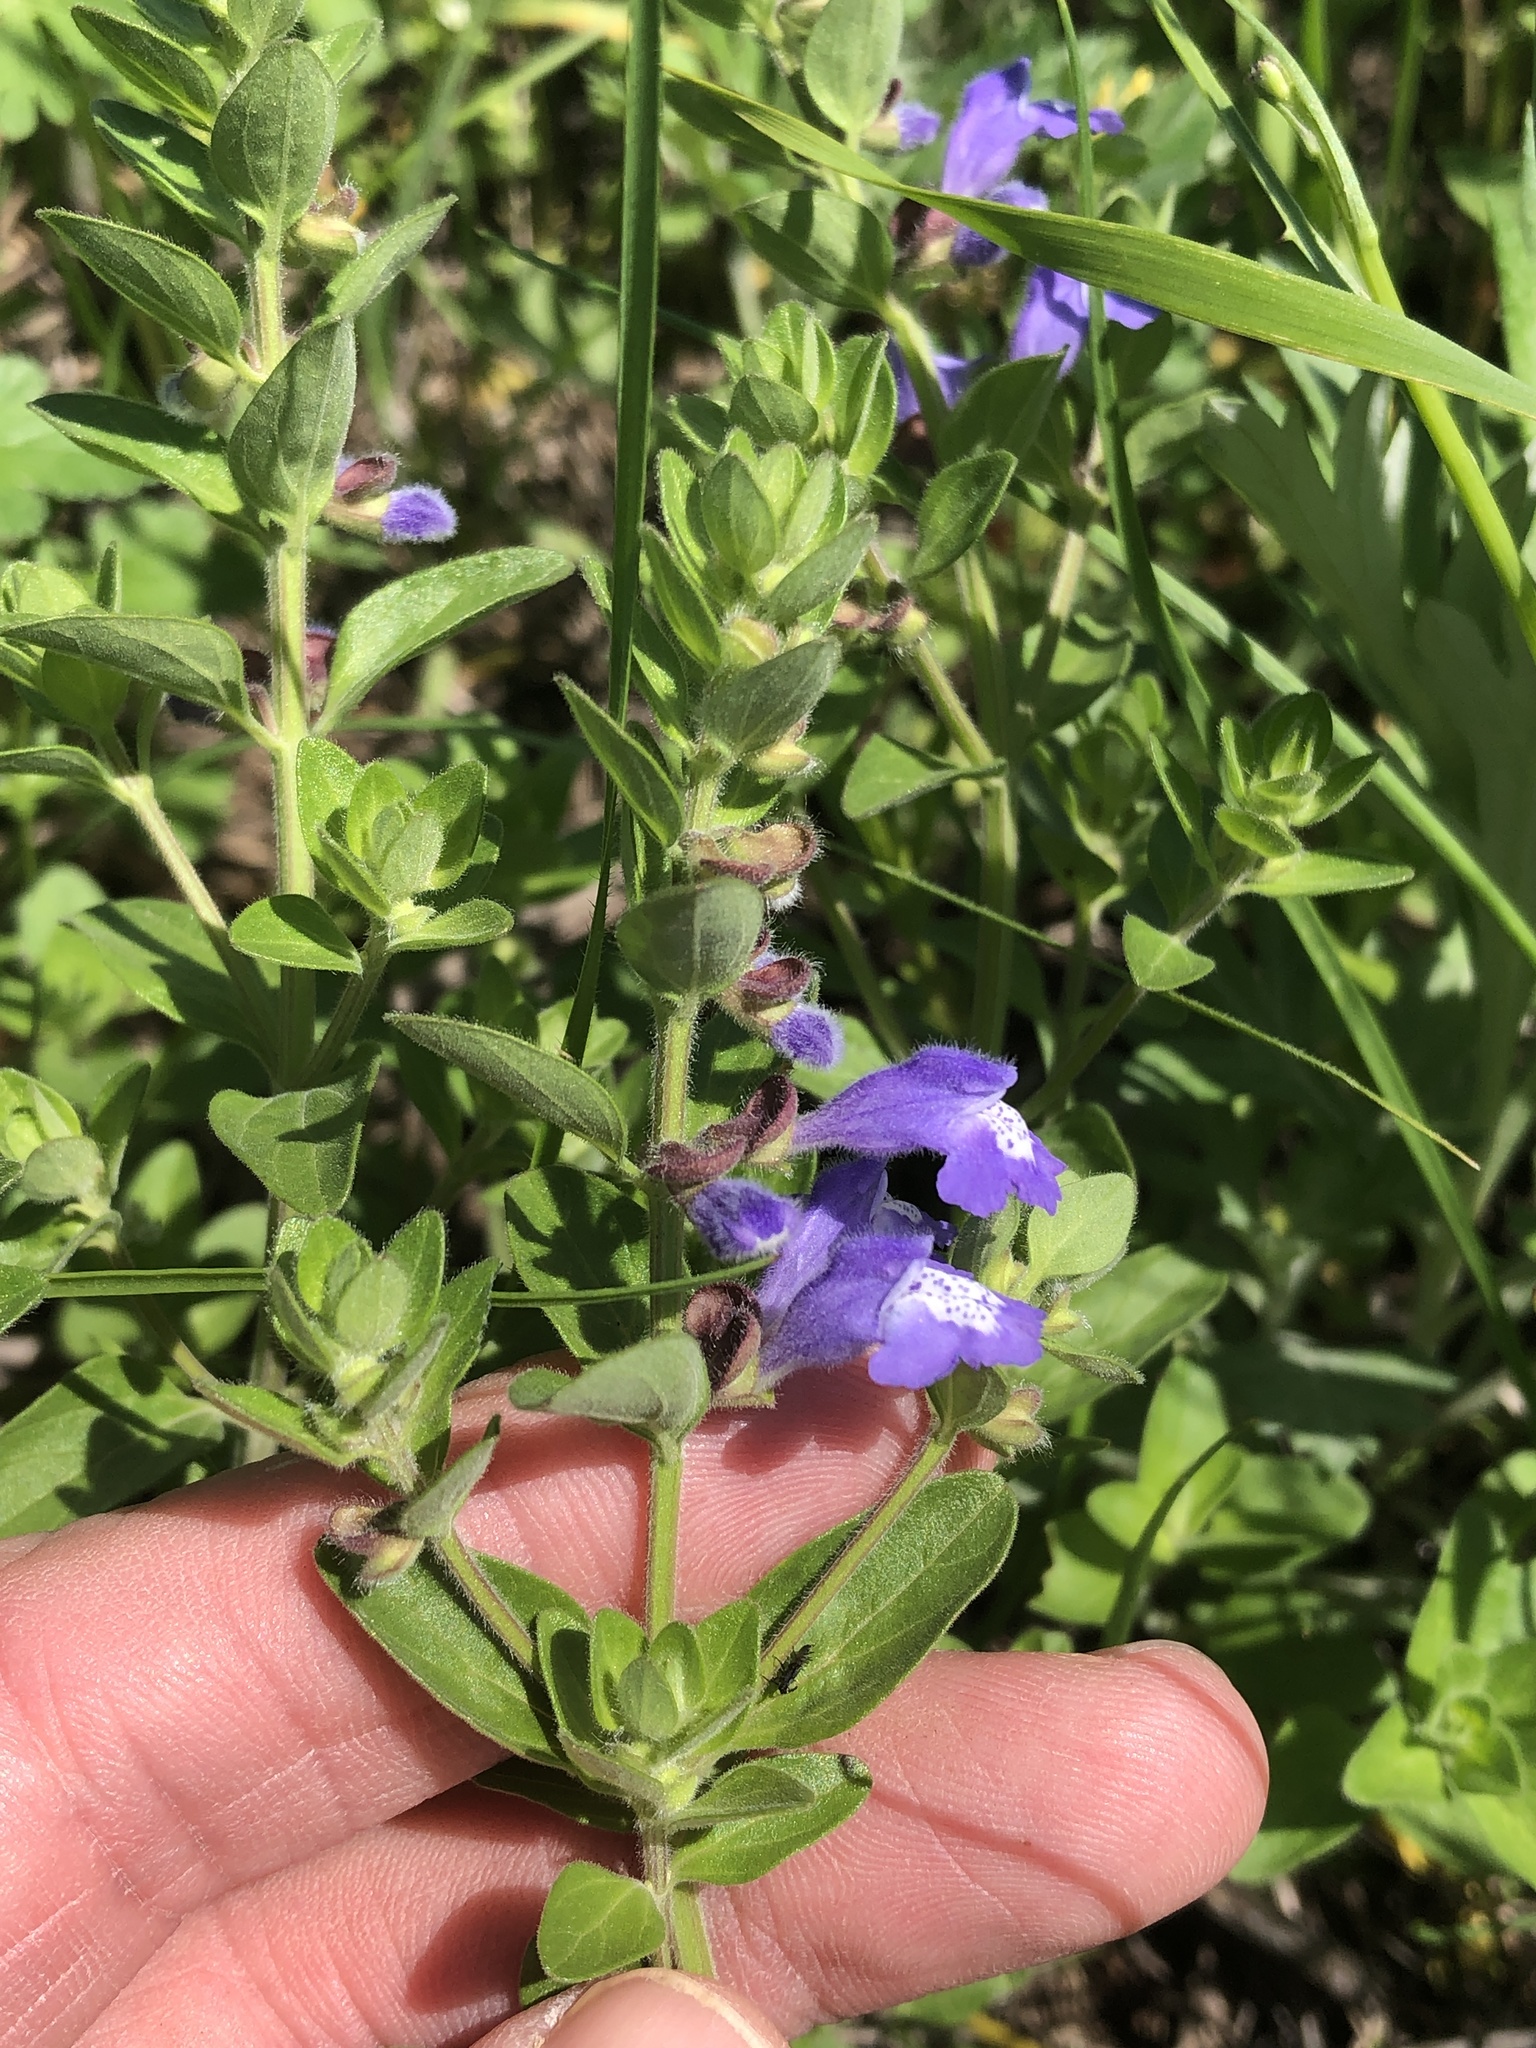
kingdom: Plantae
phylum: Tracheophyta
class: Magnoliopsida
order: Lamiales
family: Lamiaceae
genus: Scutellaria
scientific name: Scutellaria drummondii
